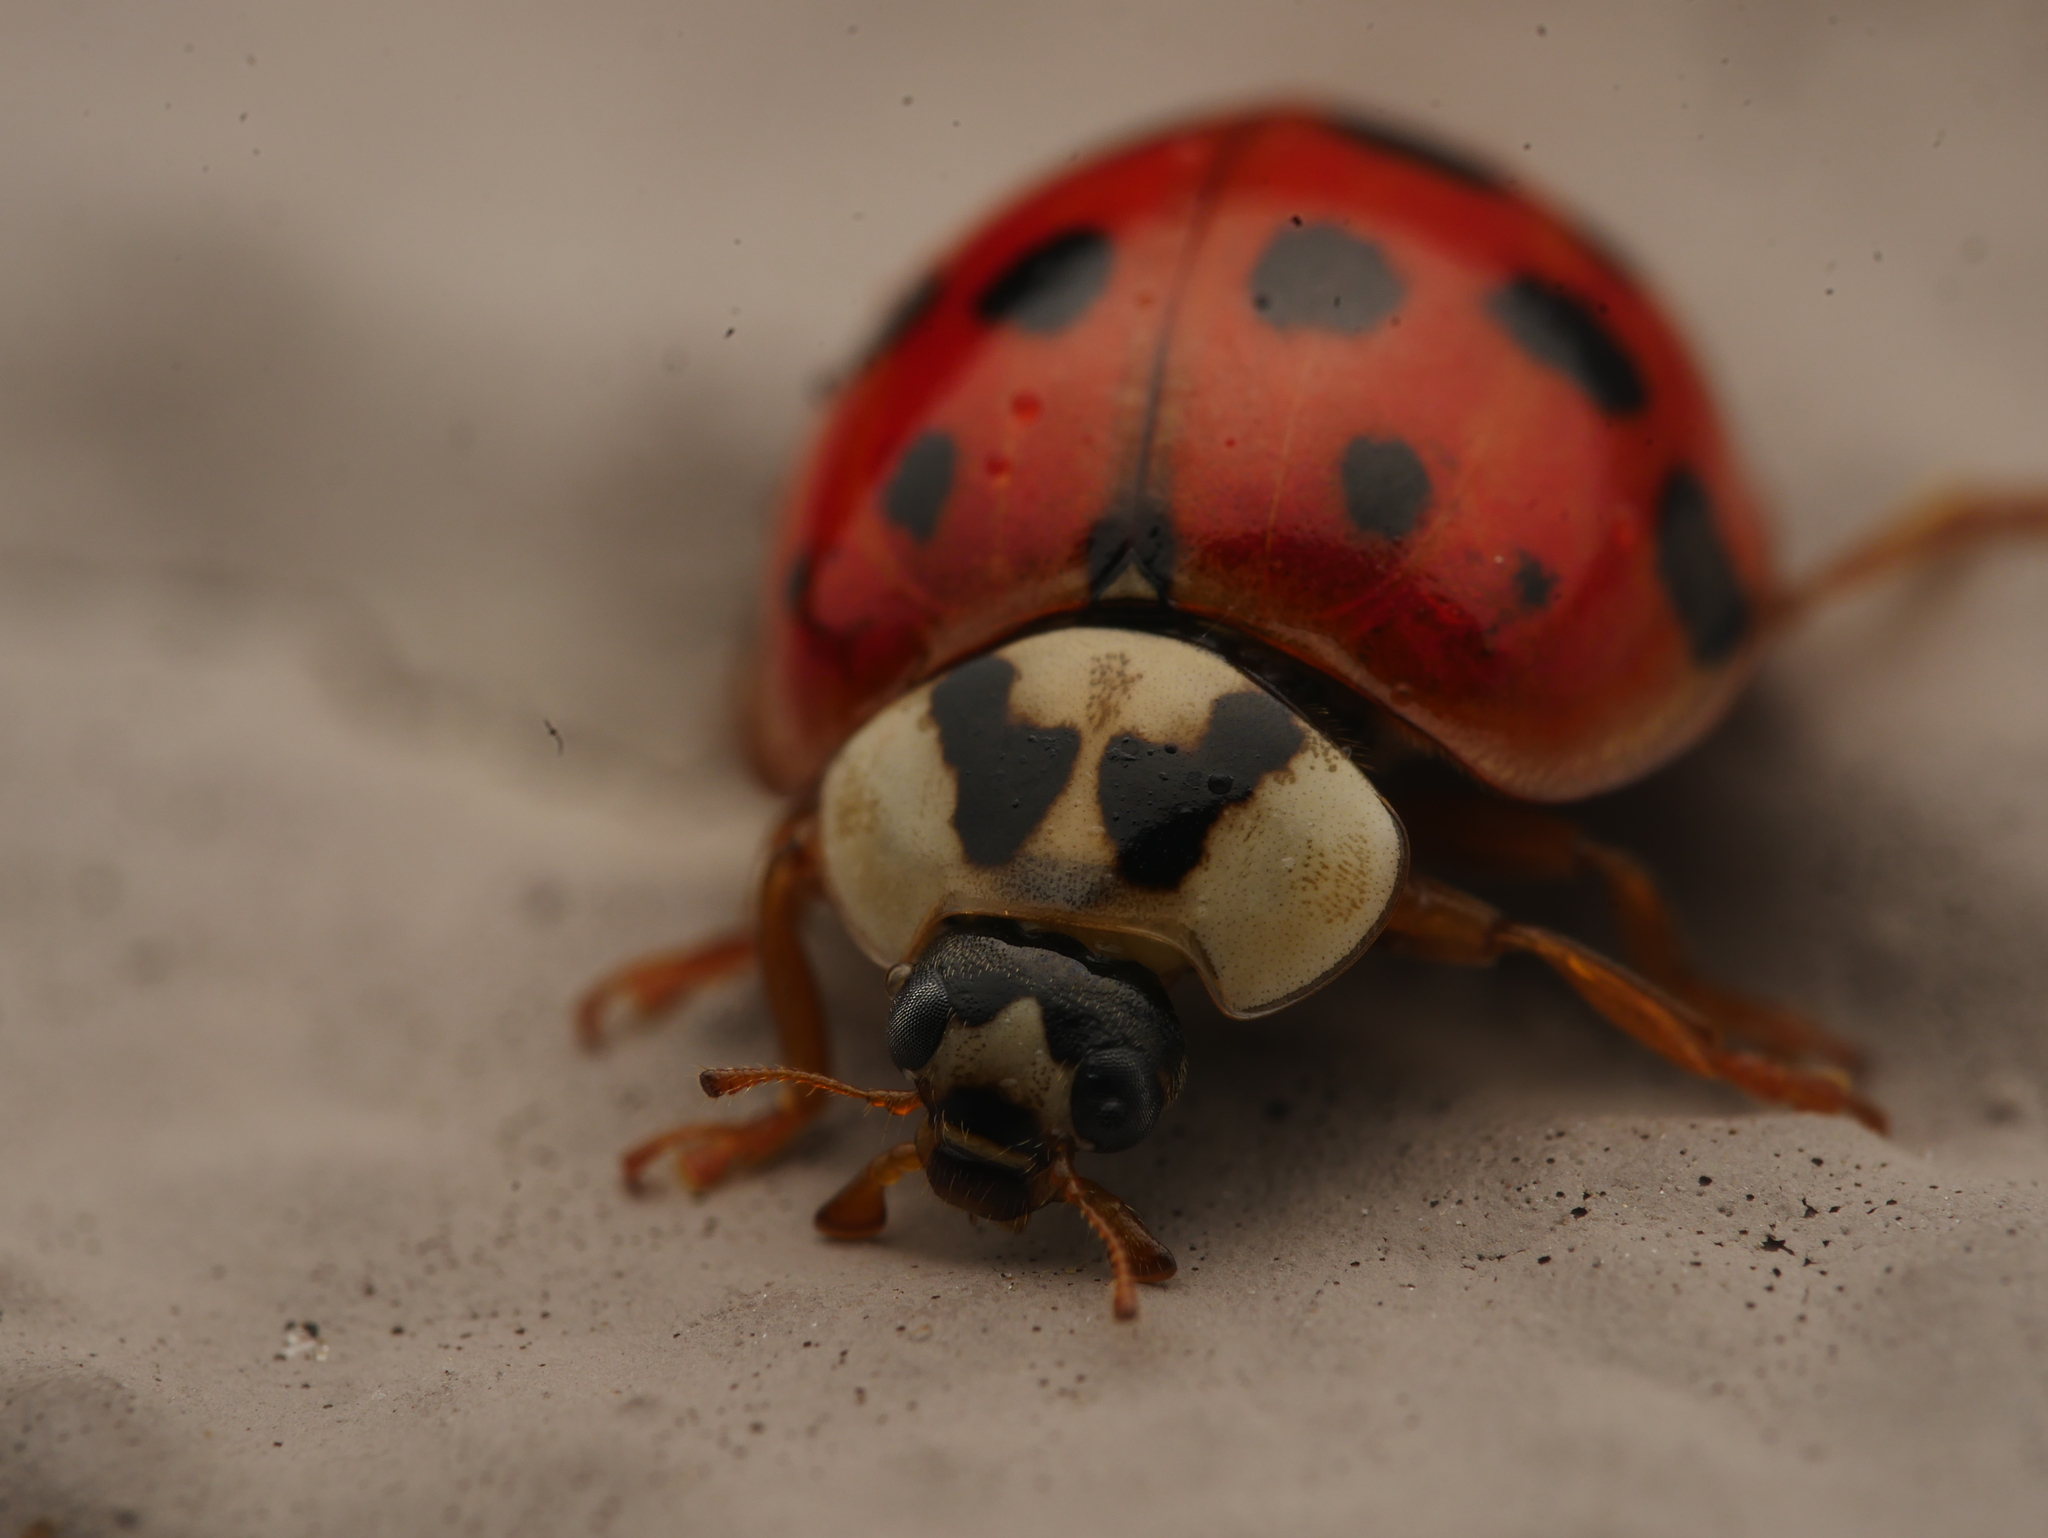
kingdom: Animalia
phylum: Arthropoda
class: Insecta
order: Coleoptera
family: Coccinellidae
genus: Harmonia
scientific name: Harmonia axyridis
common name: Harlequin ladybird
